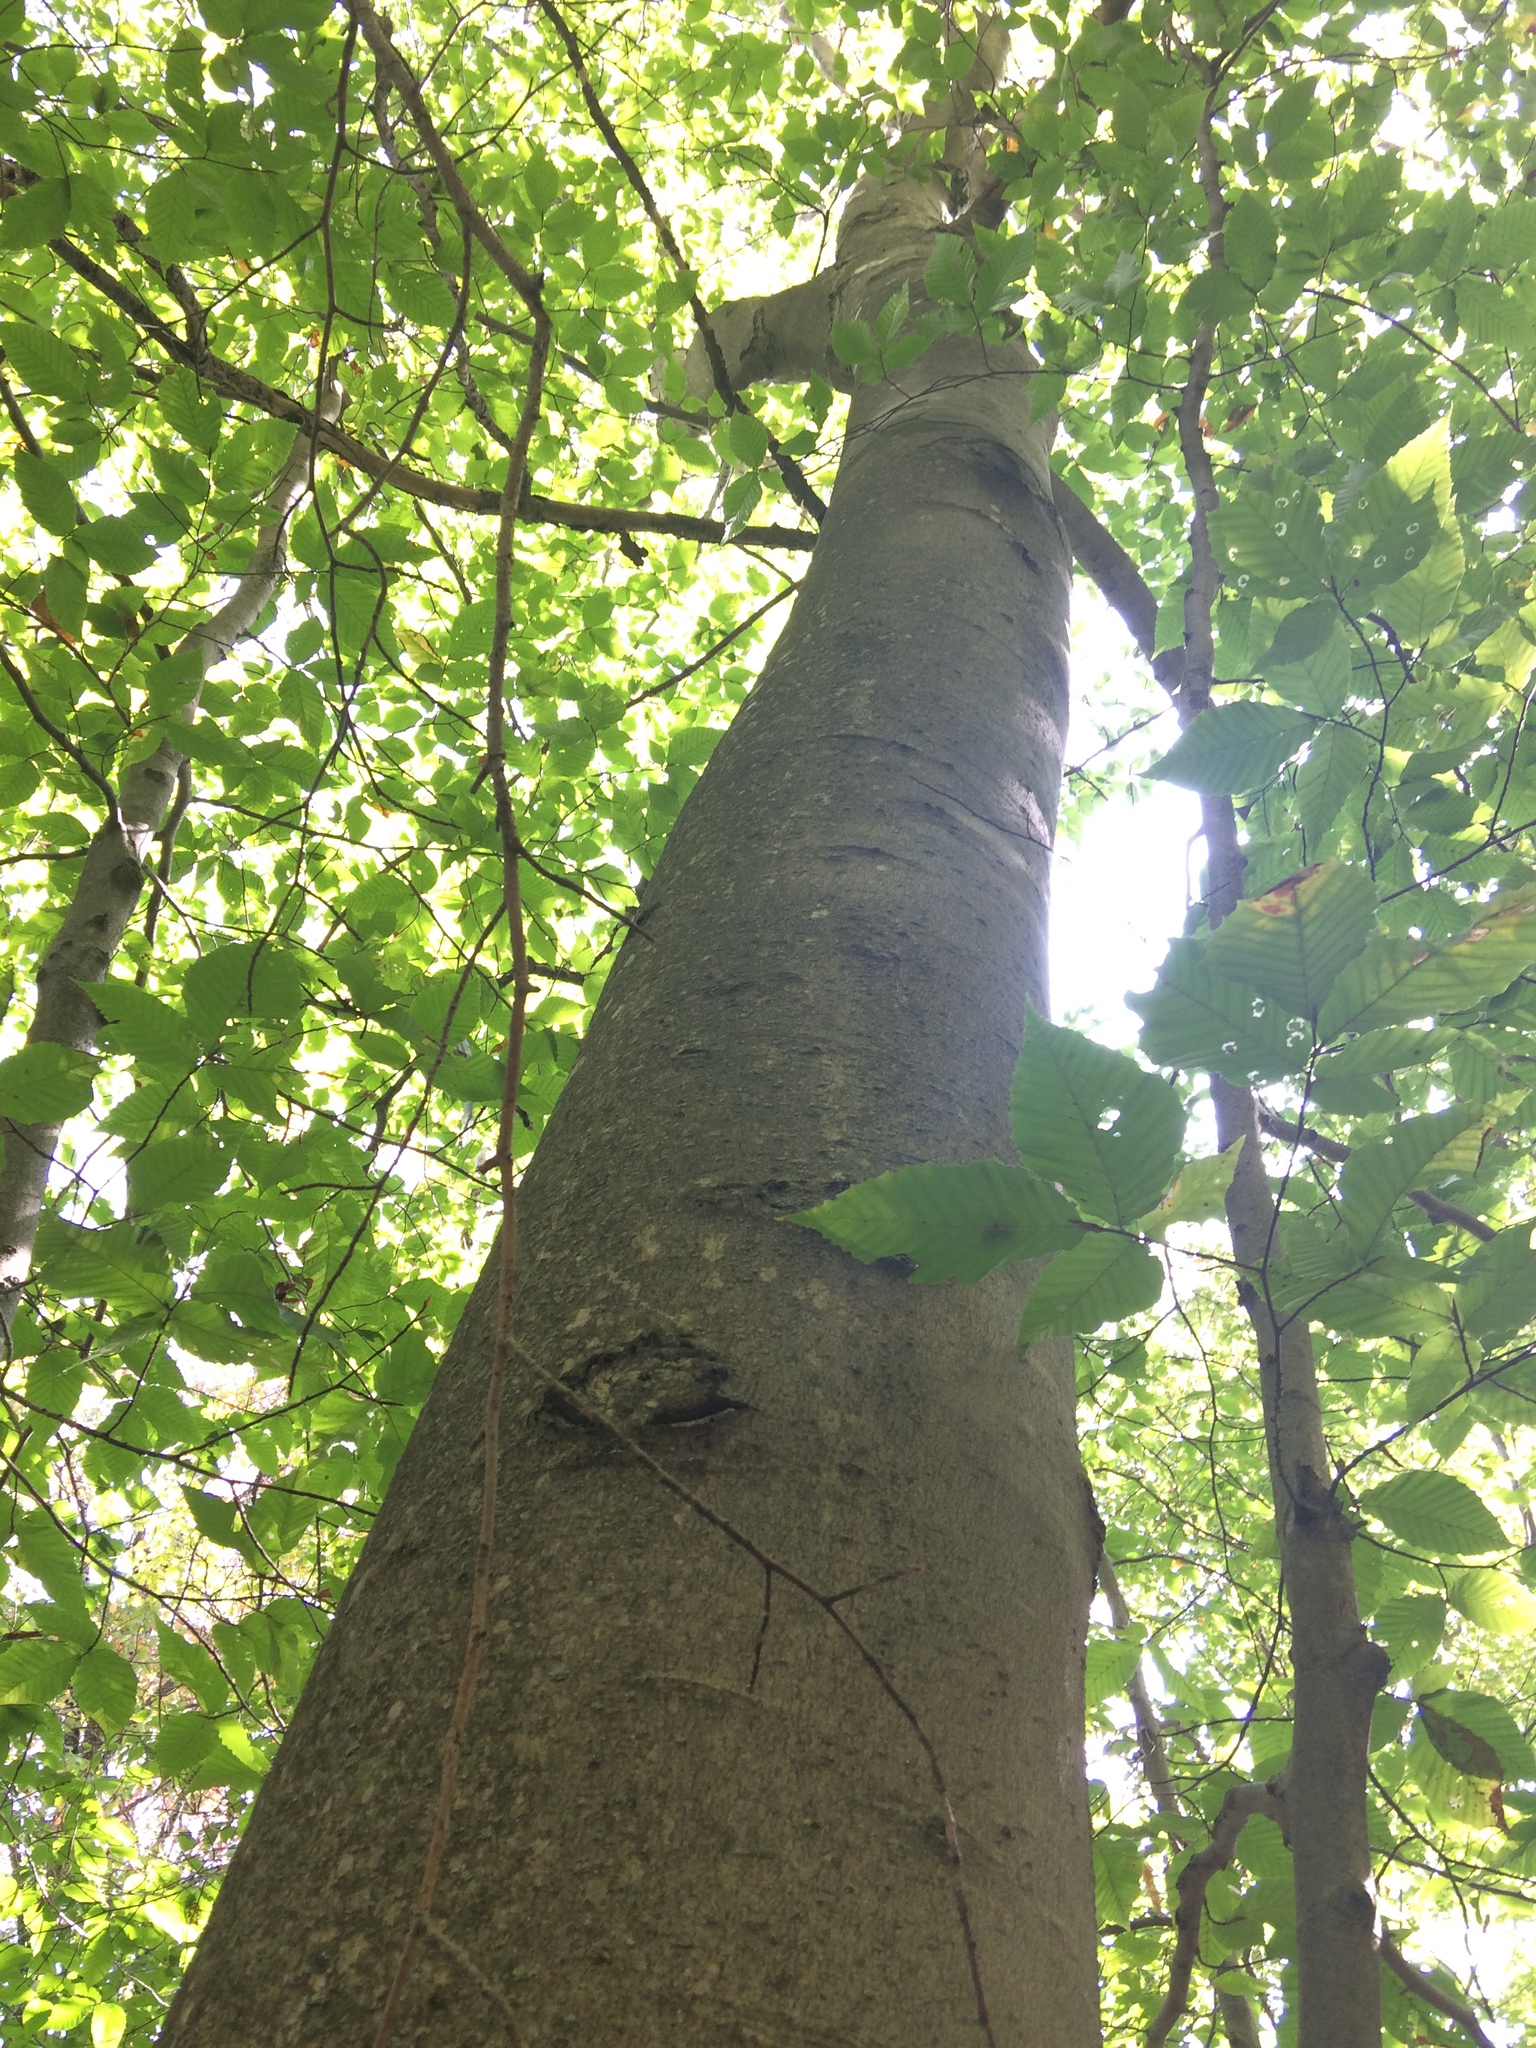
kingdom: Plantae
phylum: Tracheophyta
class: Magnoliopsida
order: Fagales
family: Fagaceae
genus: Fagus
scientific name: Fagus grandifolia
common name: American beech
